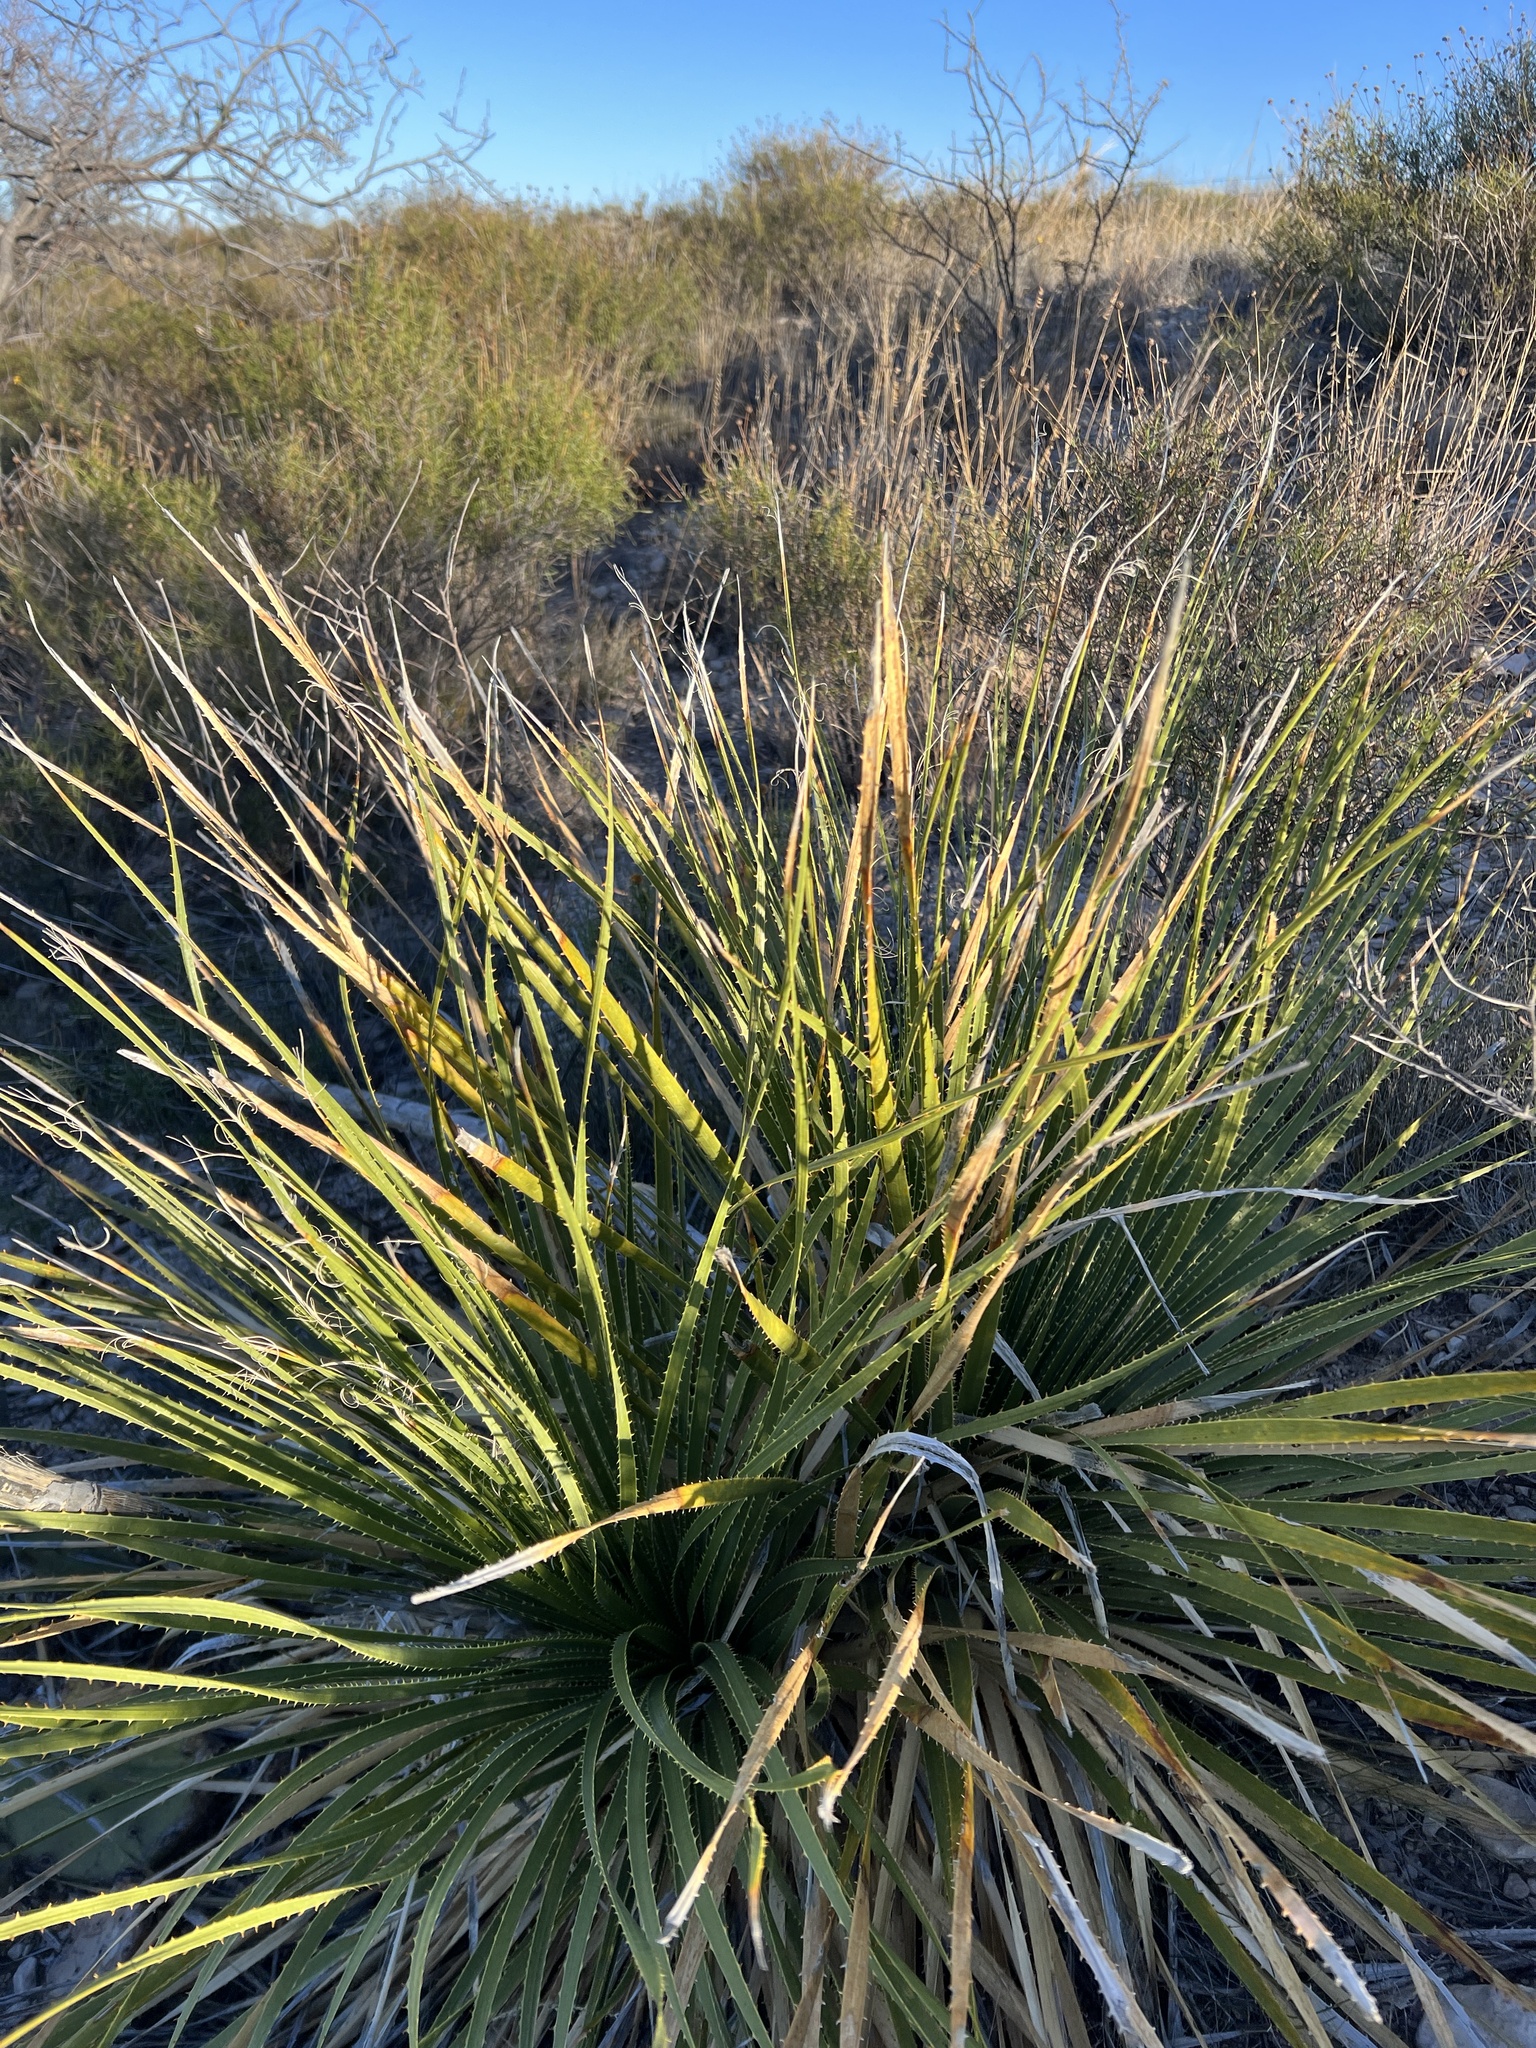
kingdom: Plantae
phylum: Tracheophyta
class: Liliopsida
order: Asparagales
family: Asparagaceae
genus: Dasylirion
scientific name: Dasylirion texanum
